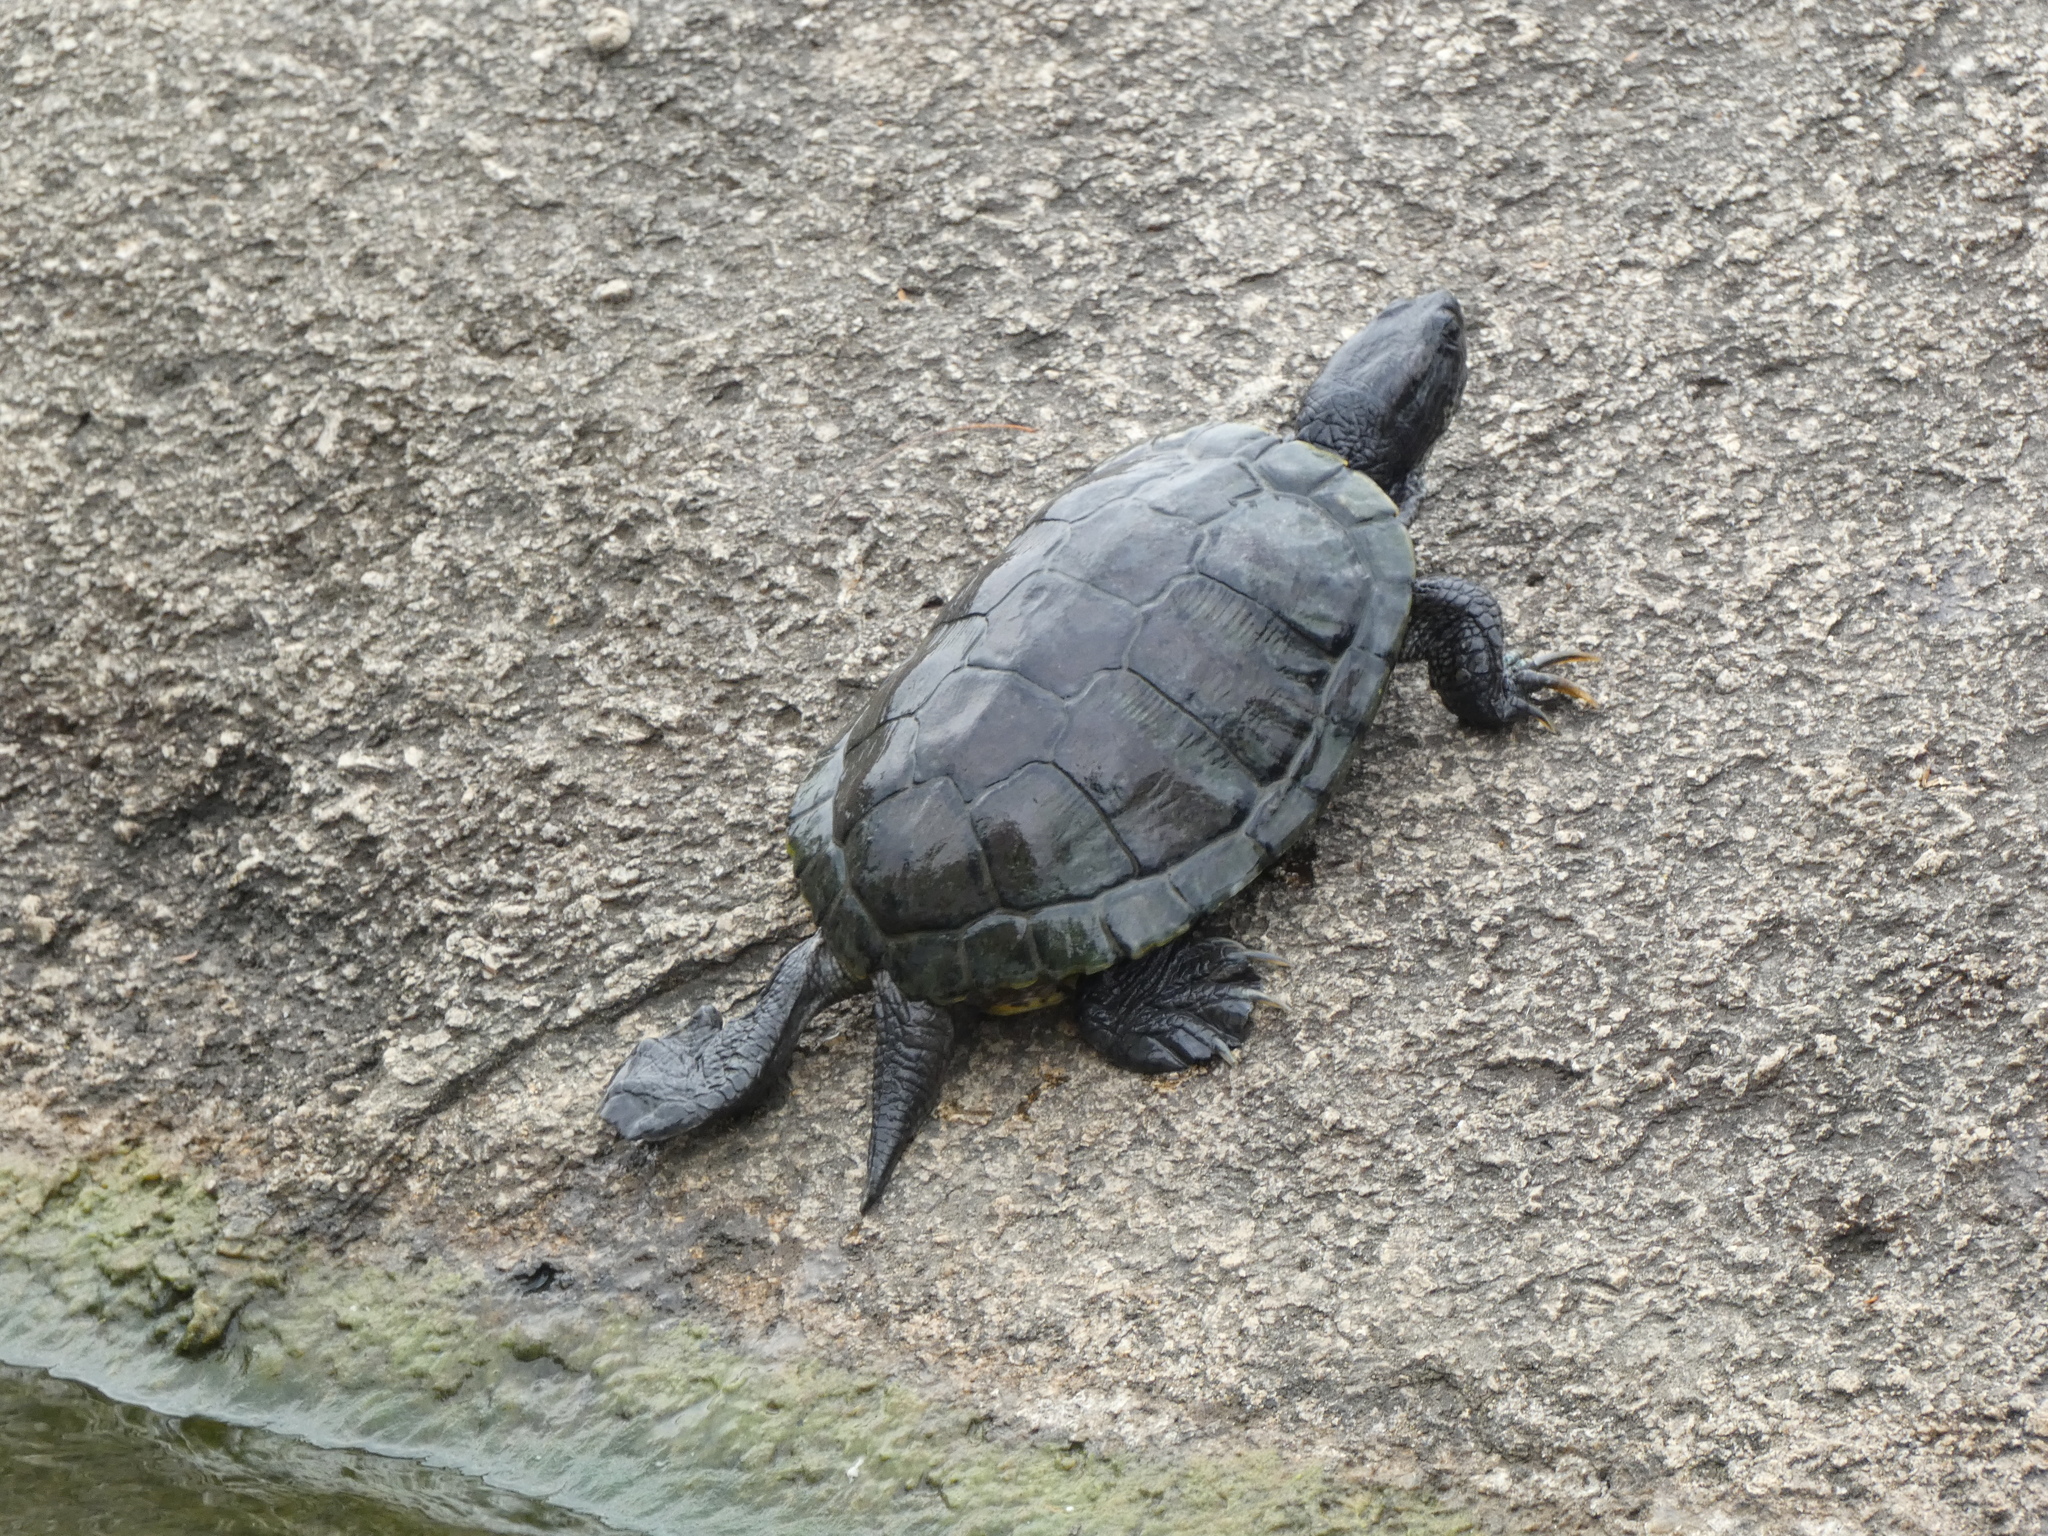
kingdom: Animalia
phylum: Chordata
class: Testudines
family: Emydidae
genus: Trachemys
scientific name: Trachemys scripta
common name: Slider
